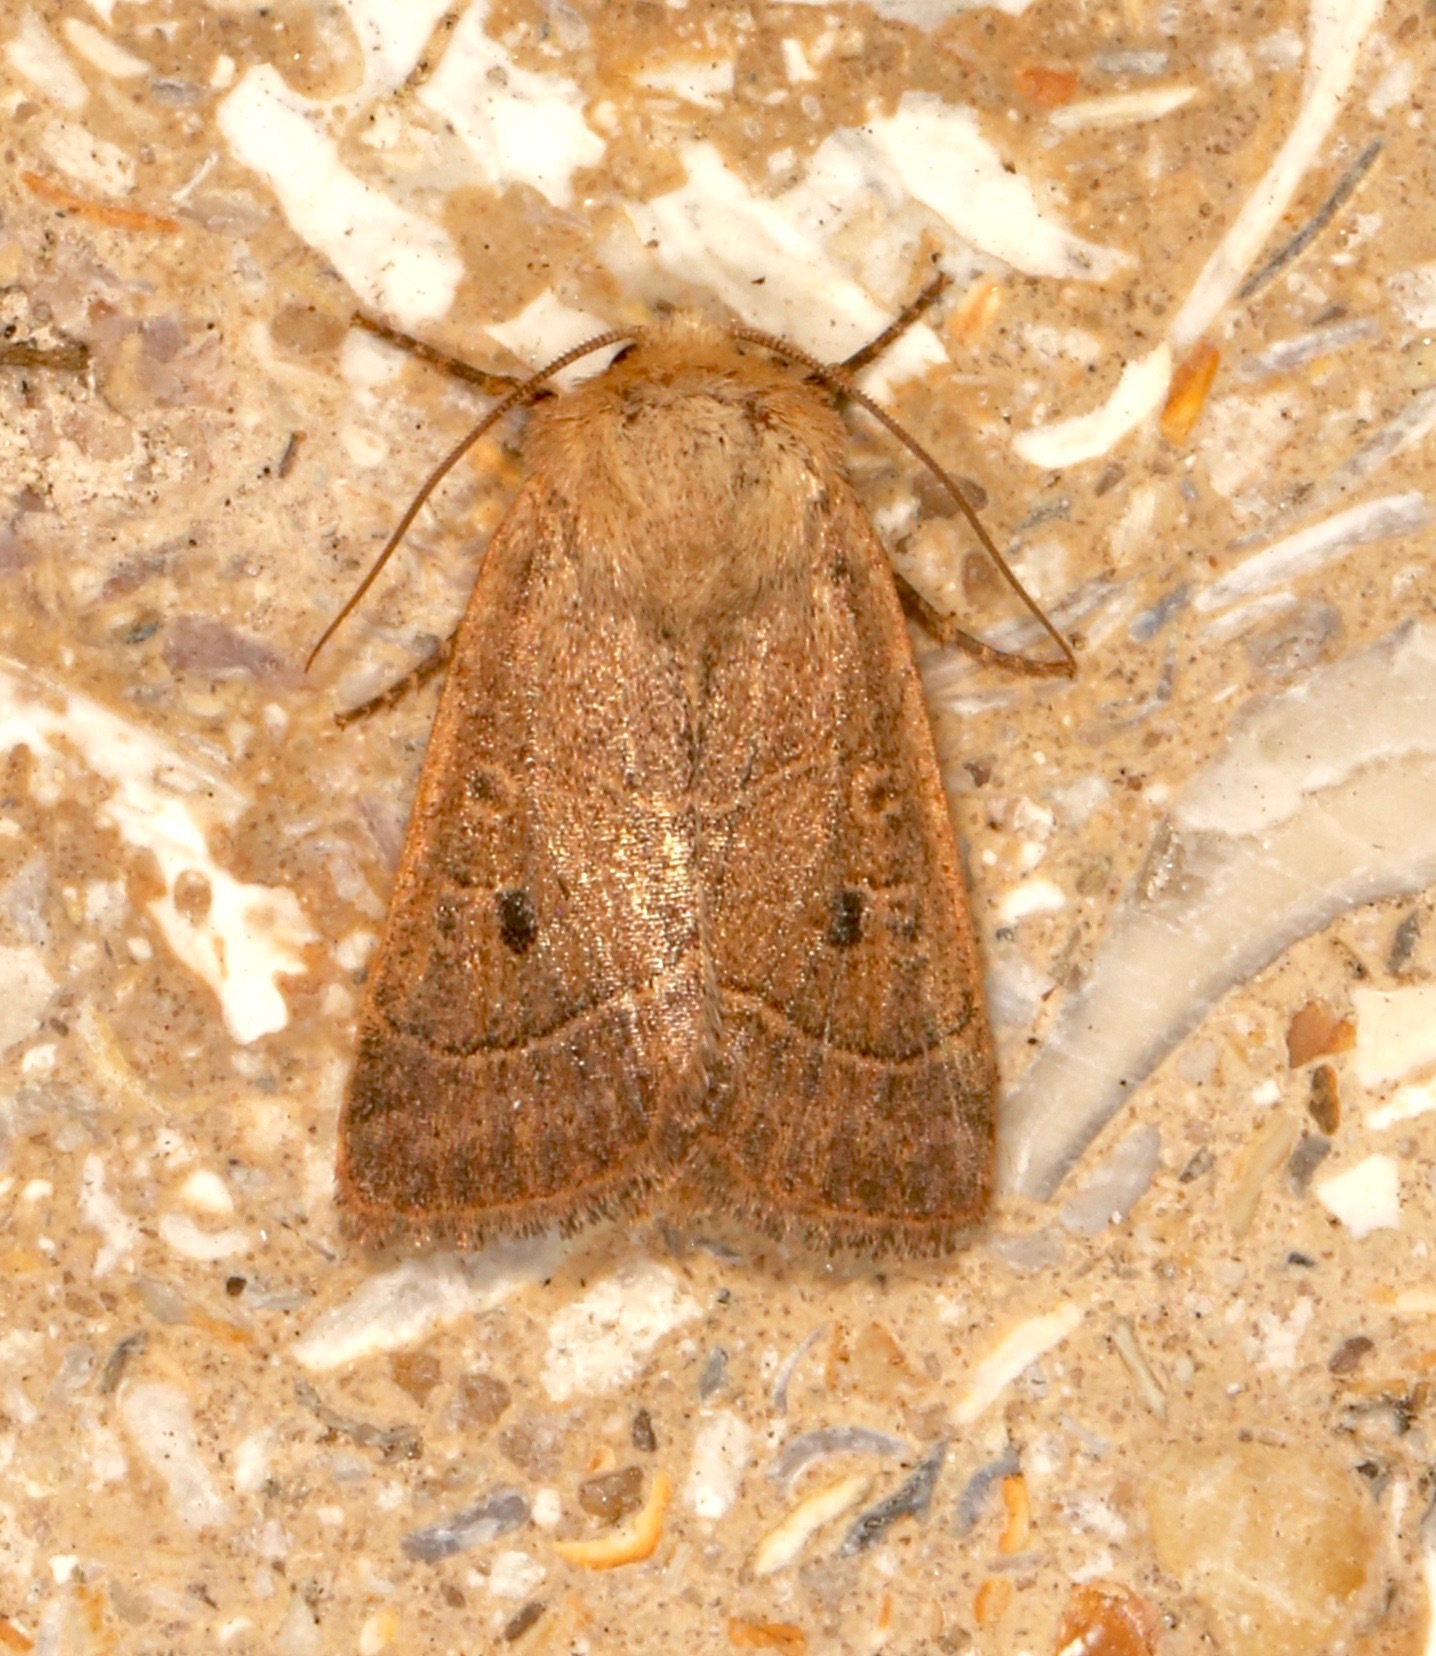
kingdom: Animalia
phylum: Arthropoda
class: Insecta
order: Lepidoptera
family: Noctuidae
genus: Ulolonche
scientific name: Ulolonche culea
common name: Sheathed quaker
